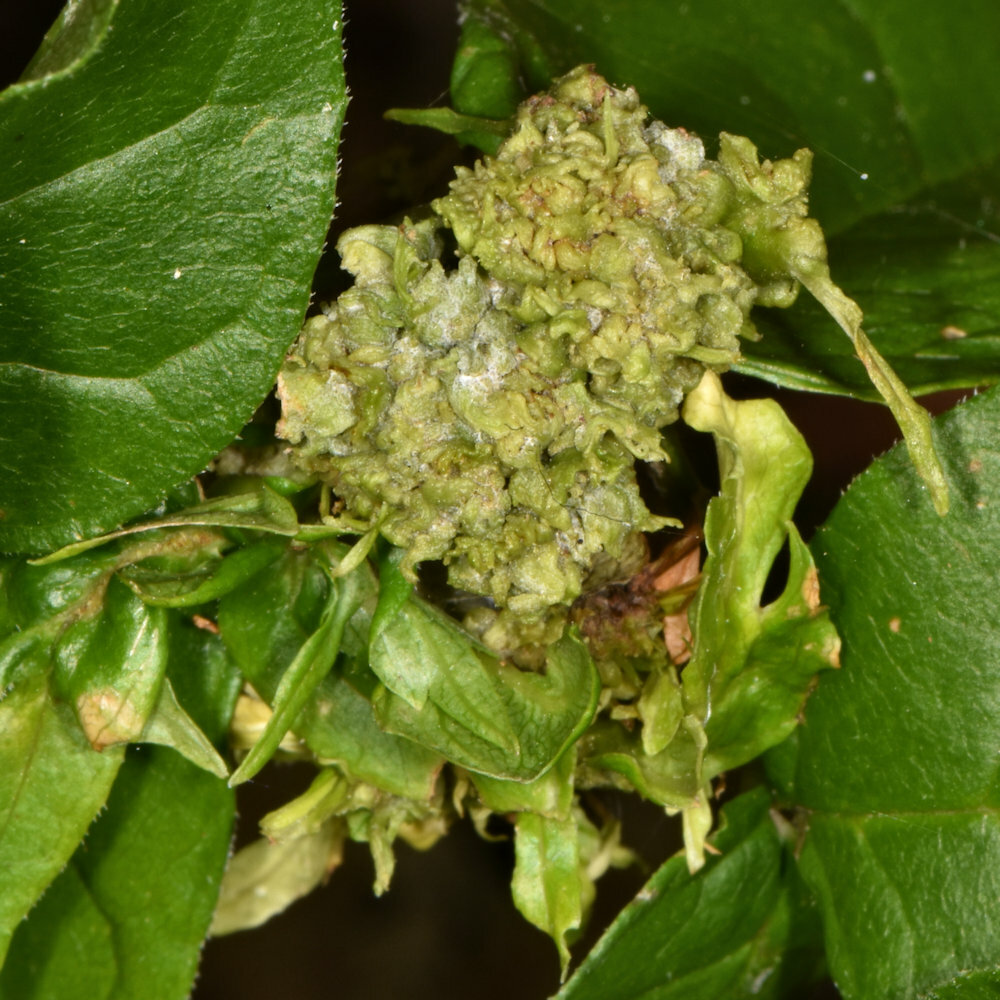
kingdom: Animalia
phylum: Arthropoda
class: Arachnida
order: Trombidiformes
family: Eriophyidae
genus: Aceria
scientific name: Aceria fraxiniflora
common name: Ash flower gall mite
